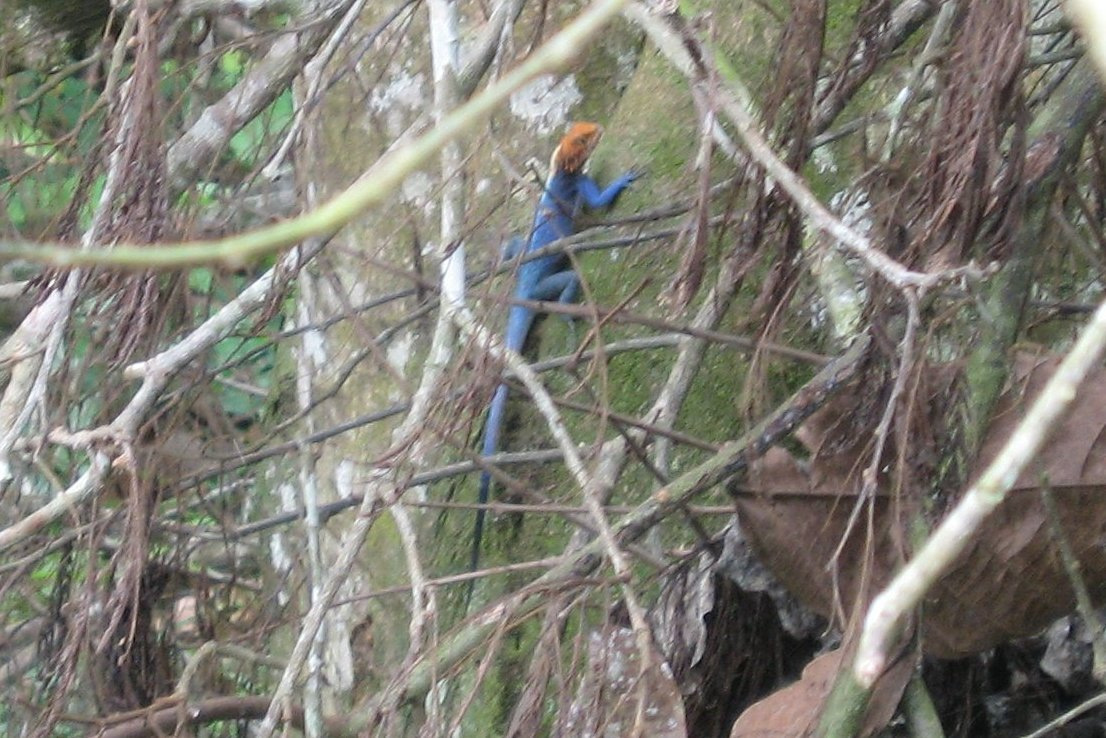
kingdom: Animalia
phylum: Chordata
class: Squamata
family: Agamidae
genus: Agama
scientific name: Agama africana
